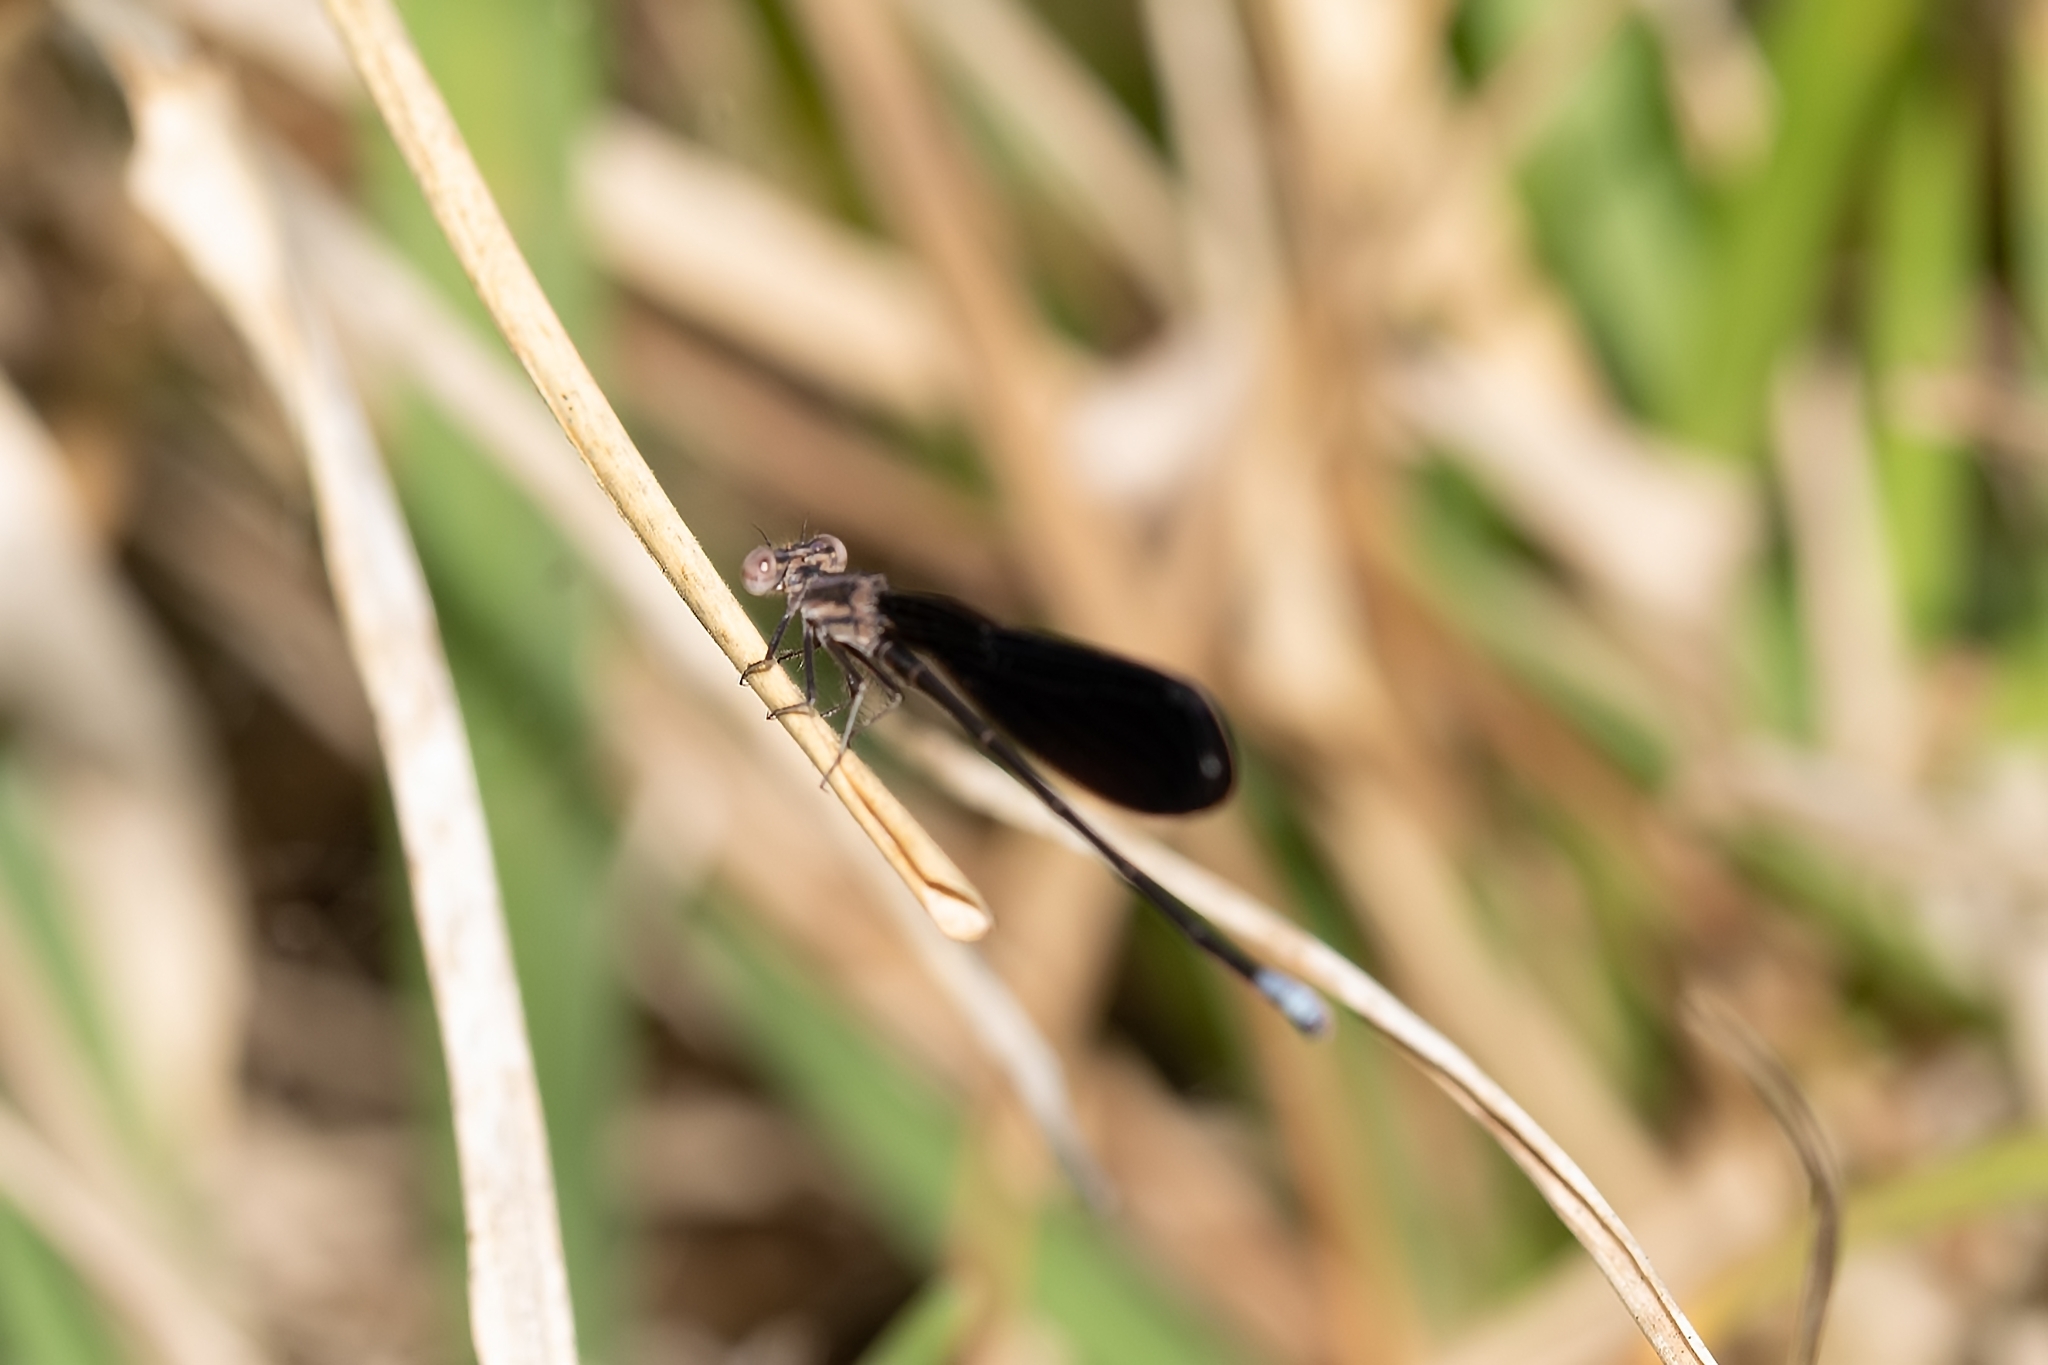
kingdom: Animalia
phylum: Arthropoda
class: Insecta
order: Odonata
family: Coenagrionidae
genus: Argia
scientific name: Argia fumipennis
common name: Variable dancer
